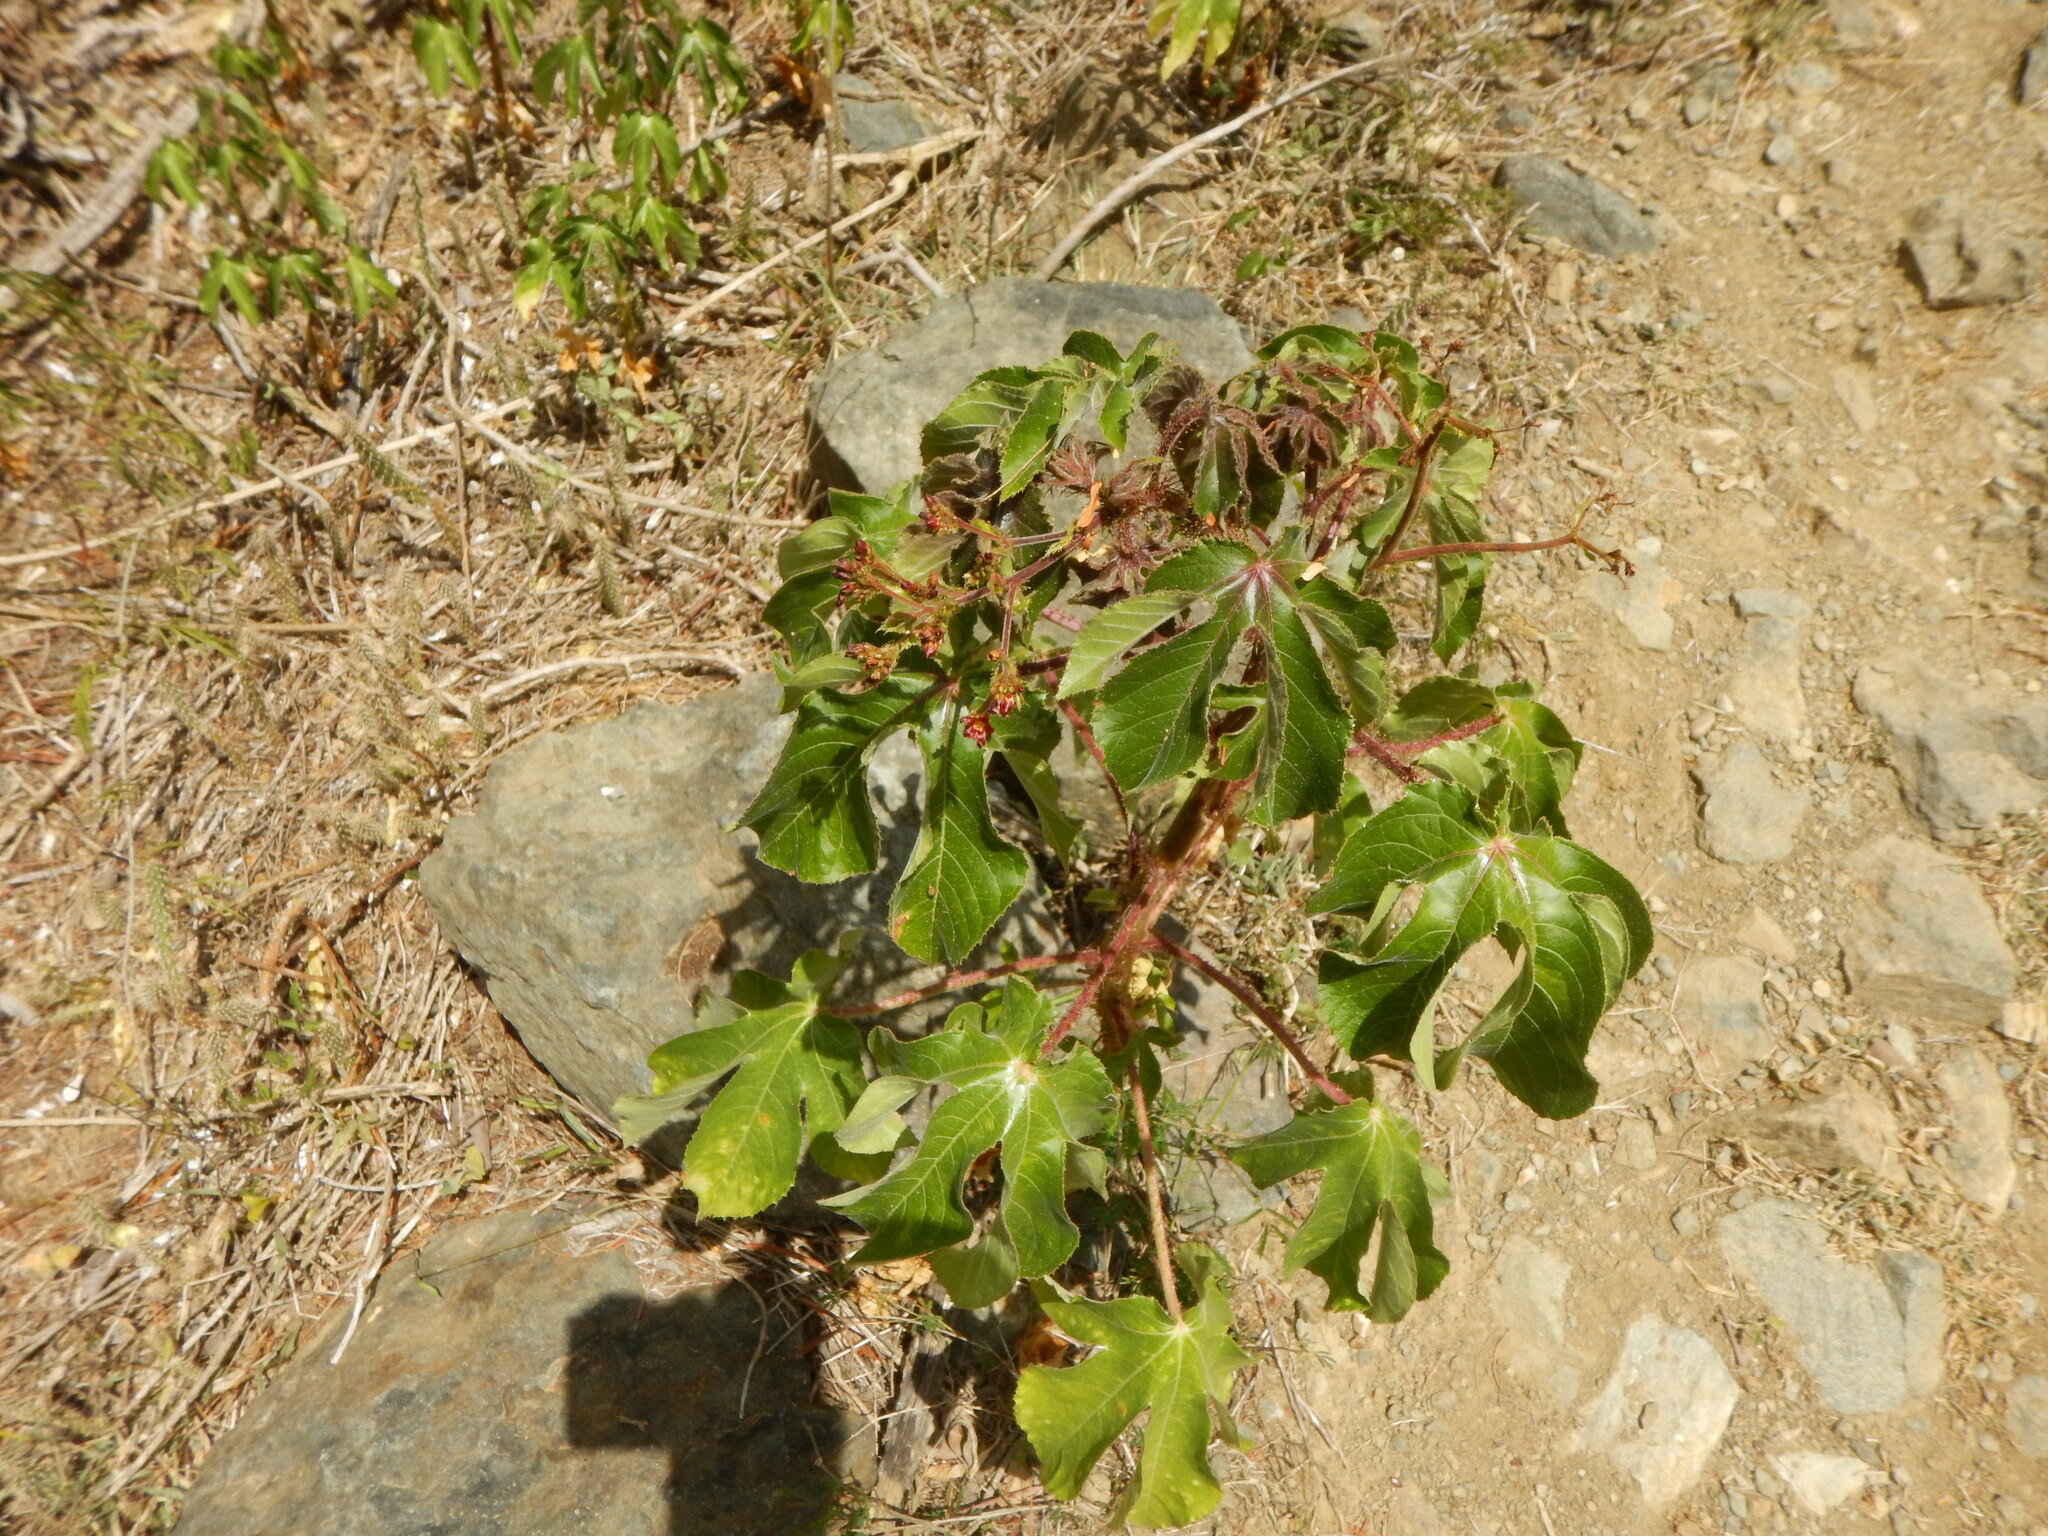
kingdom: Plantae
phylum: Tracheophyta
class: Magnoliopsida
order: Malpighiales
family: Euphorbiaceae
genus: Jatropha
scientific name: Jatropha gossypiifolia
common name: Bellyache bush
